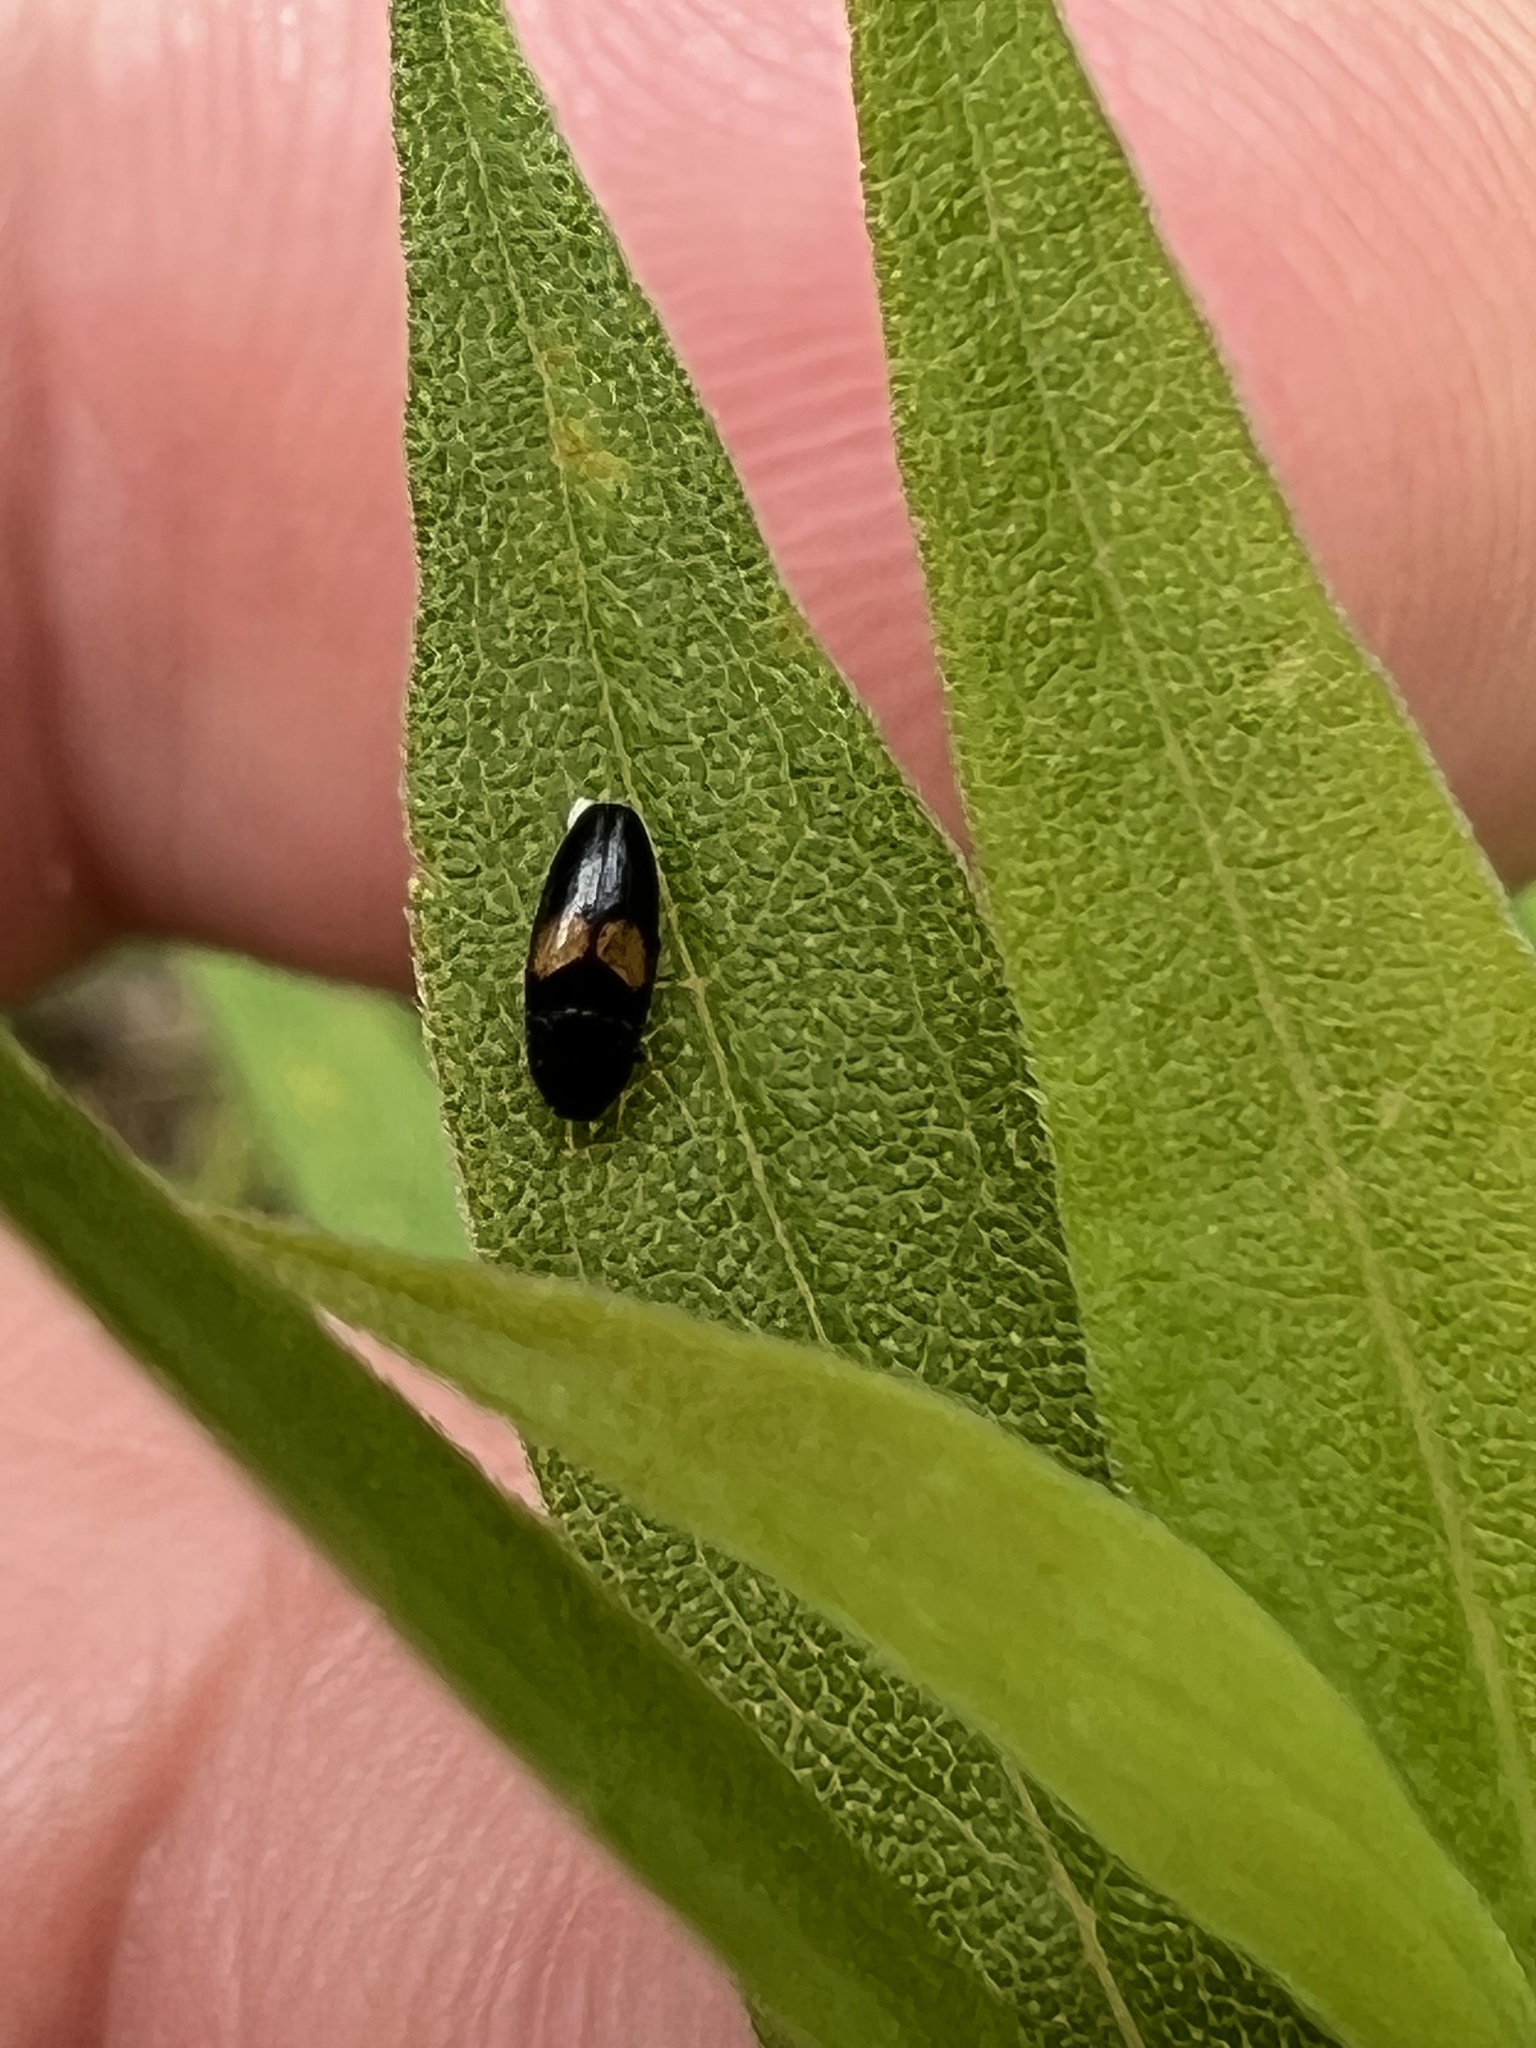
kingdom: Animalia
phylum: Arthropoda
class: Insecta
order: Coleoptera
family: Elateridae
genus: Drapetes
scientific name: Drapetes exstriatus
